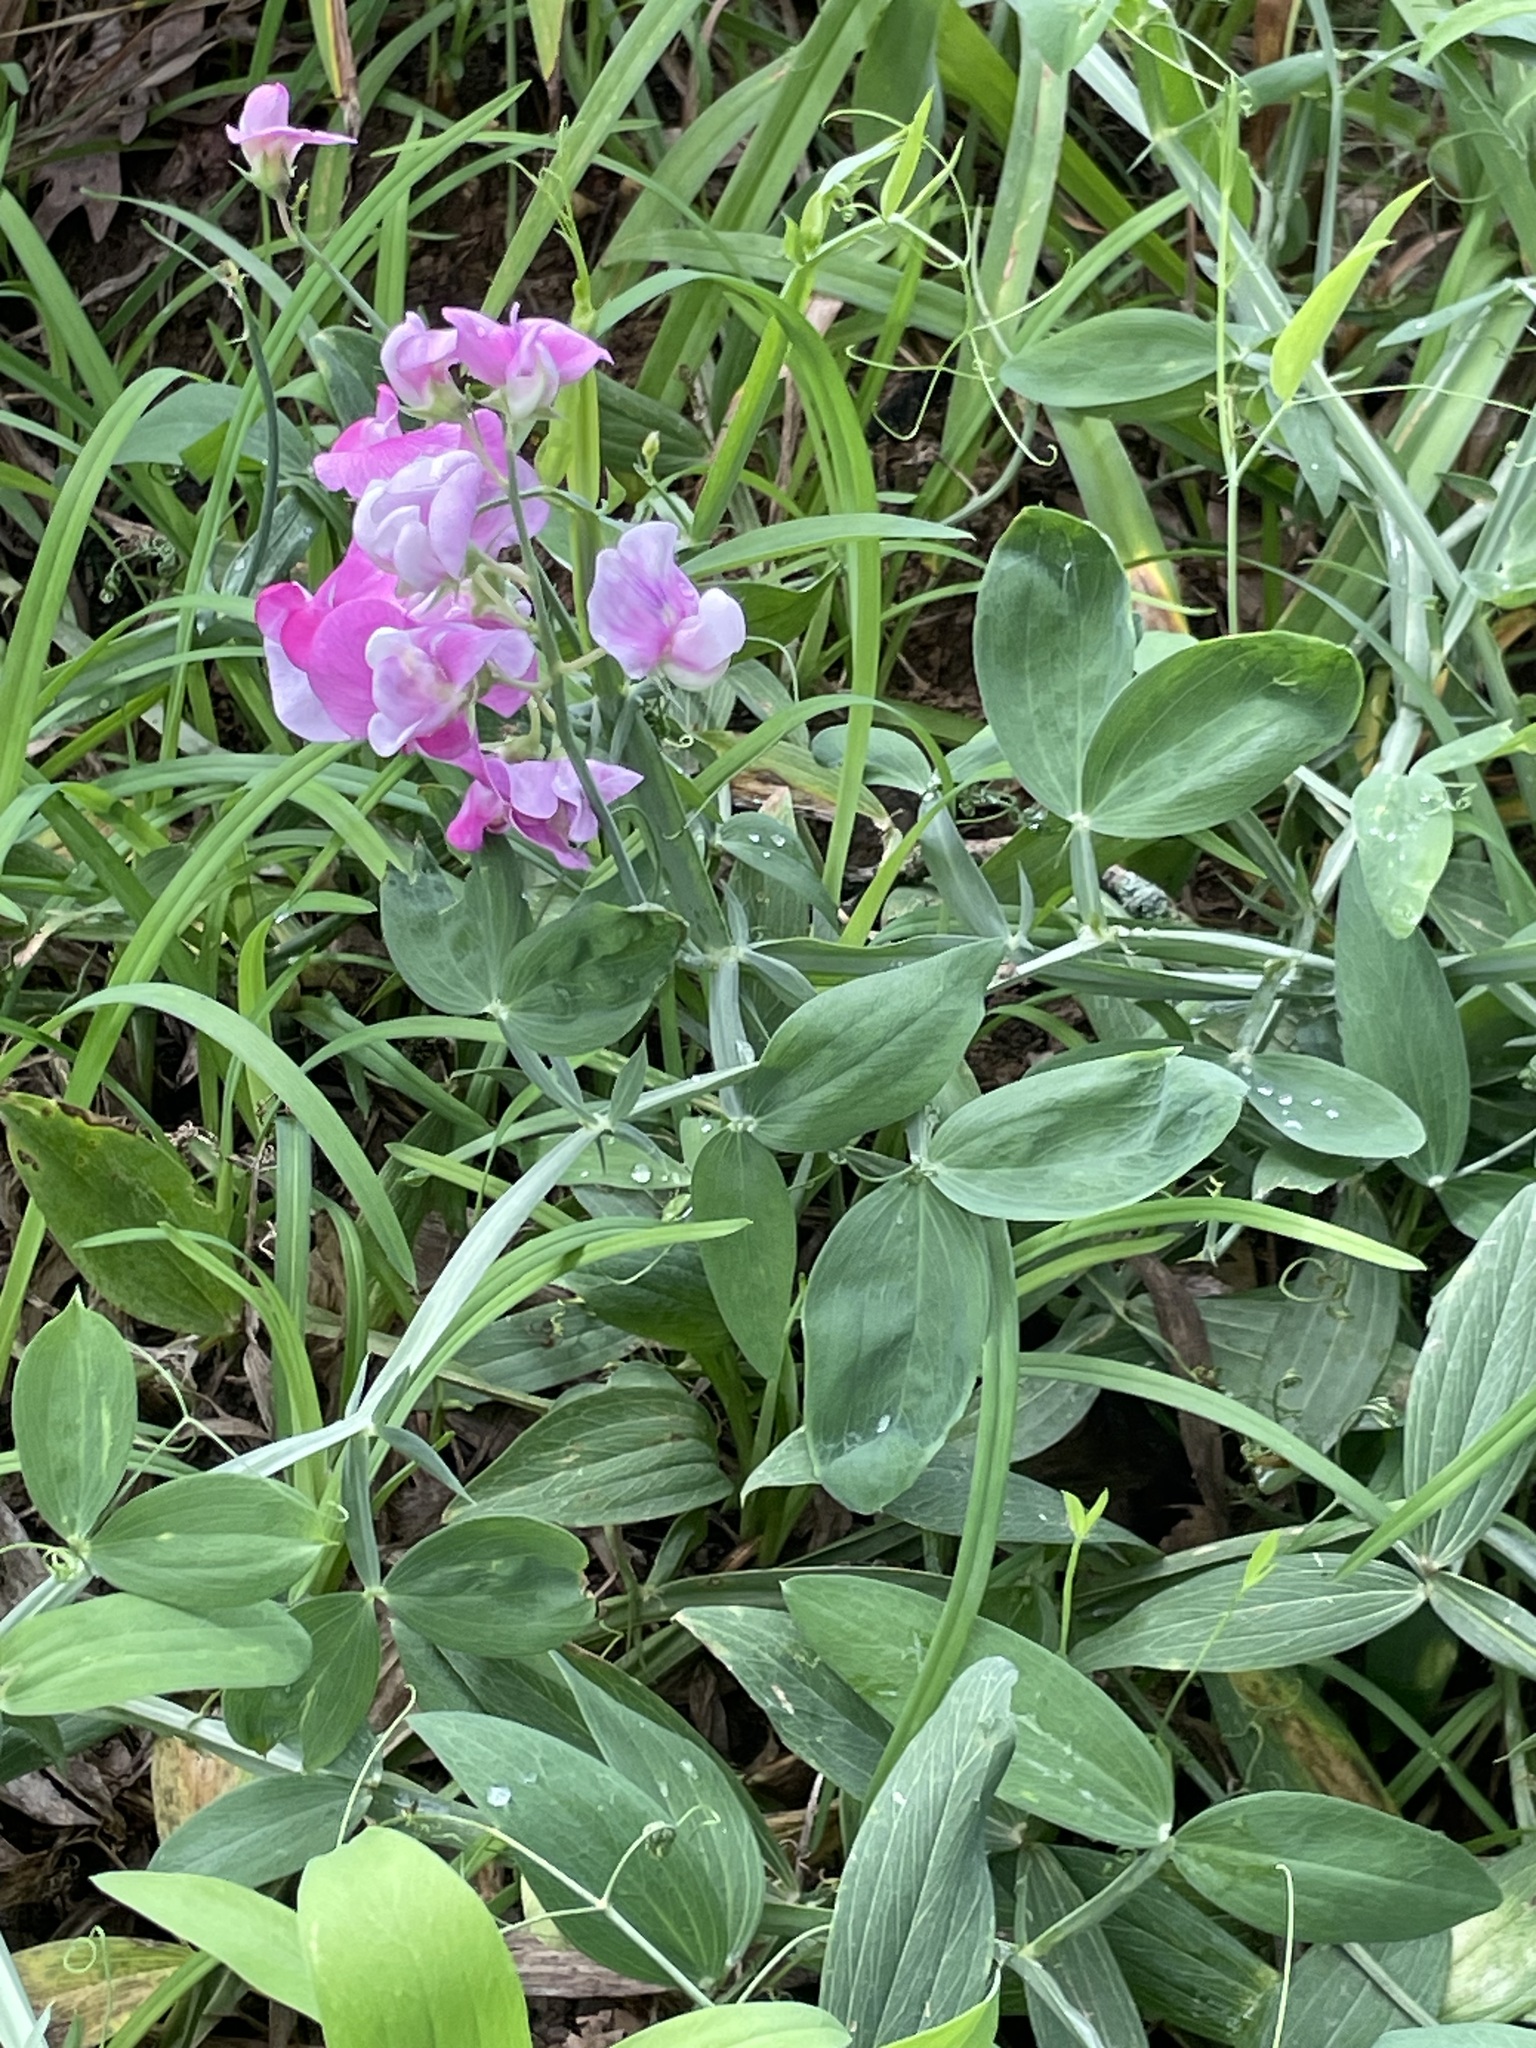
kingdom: Plantae
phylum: Tracheophyta
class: Magnoliopsida
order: Fabales
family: Fabaceae
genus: Lathyrus
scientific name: Lathyrus latifolius
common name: Perennial pea
